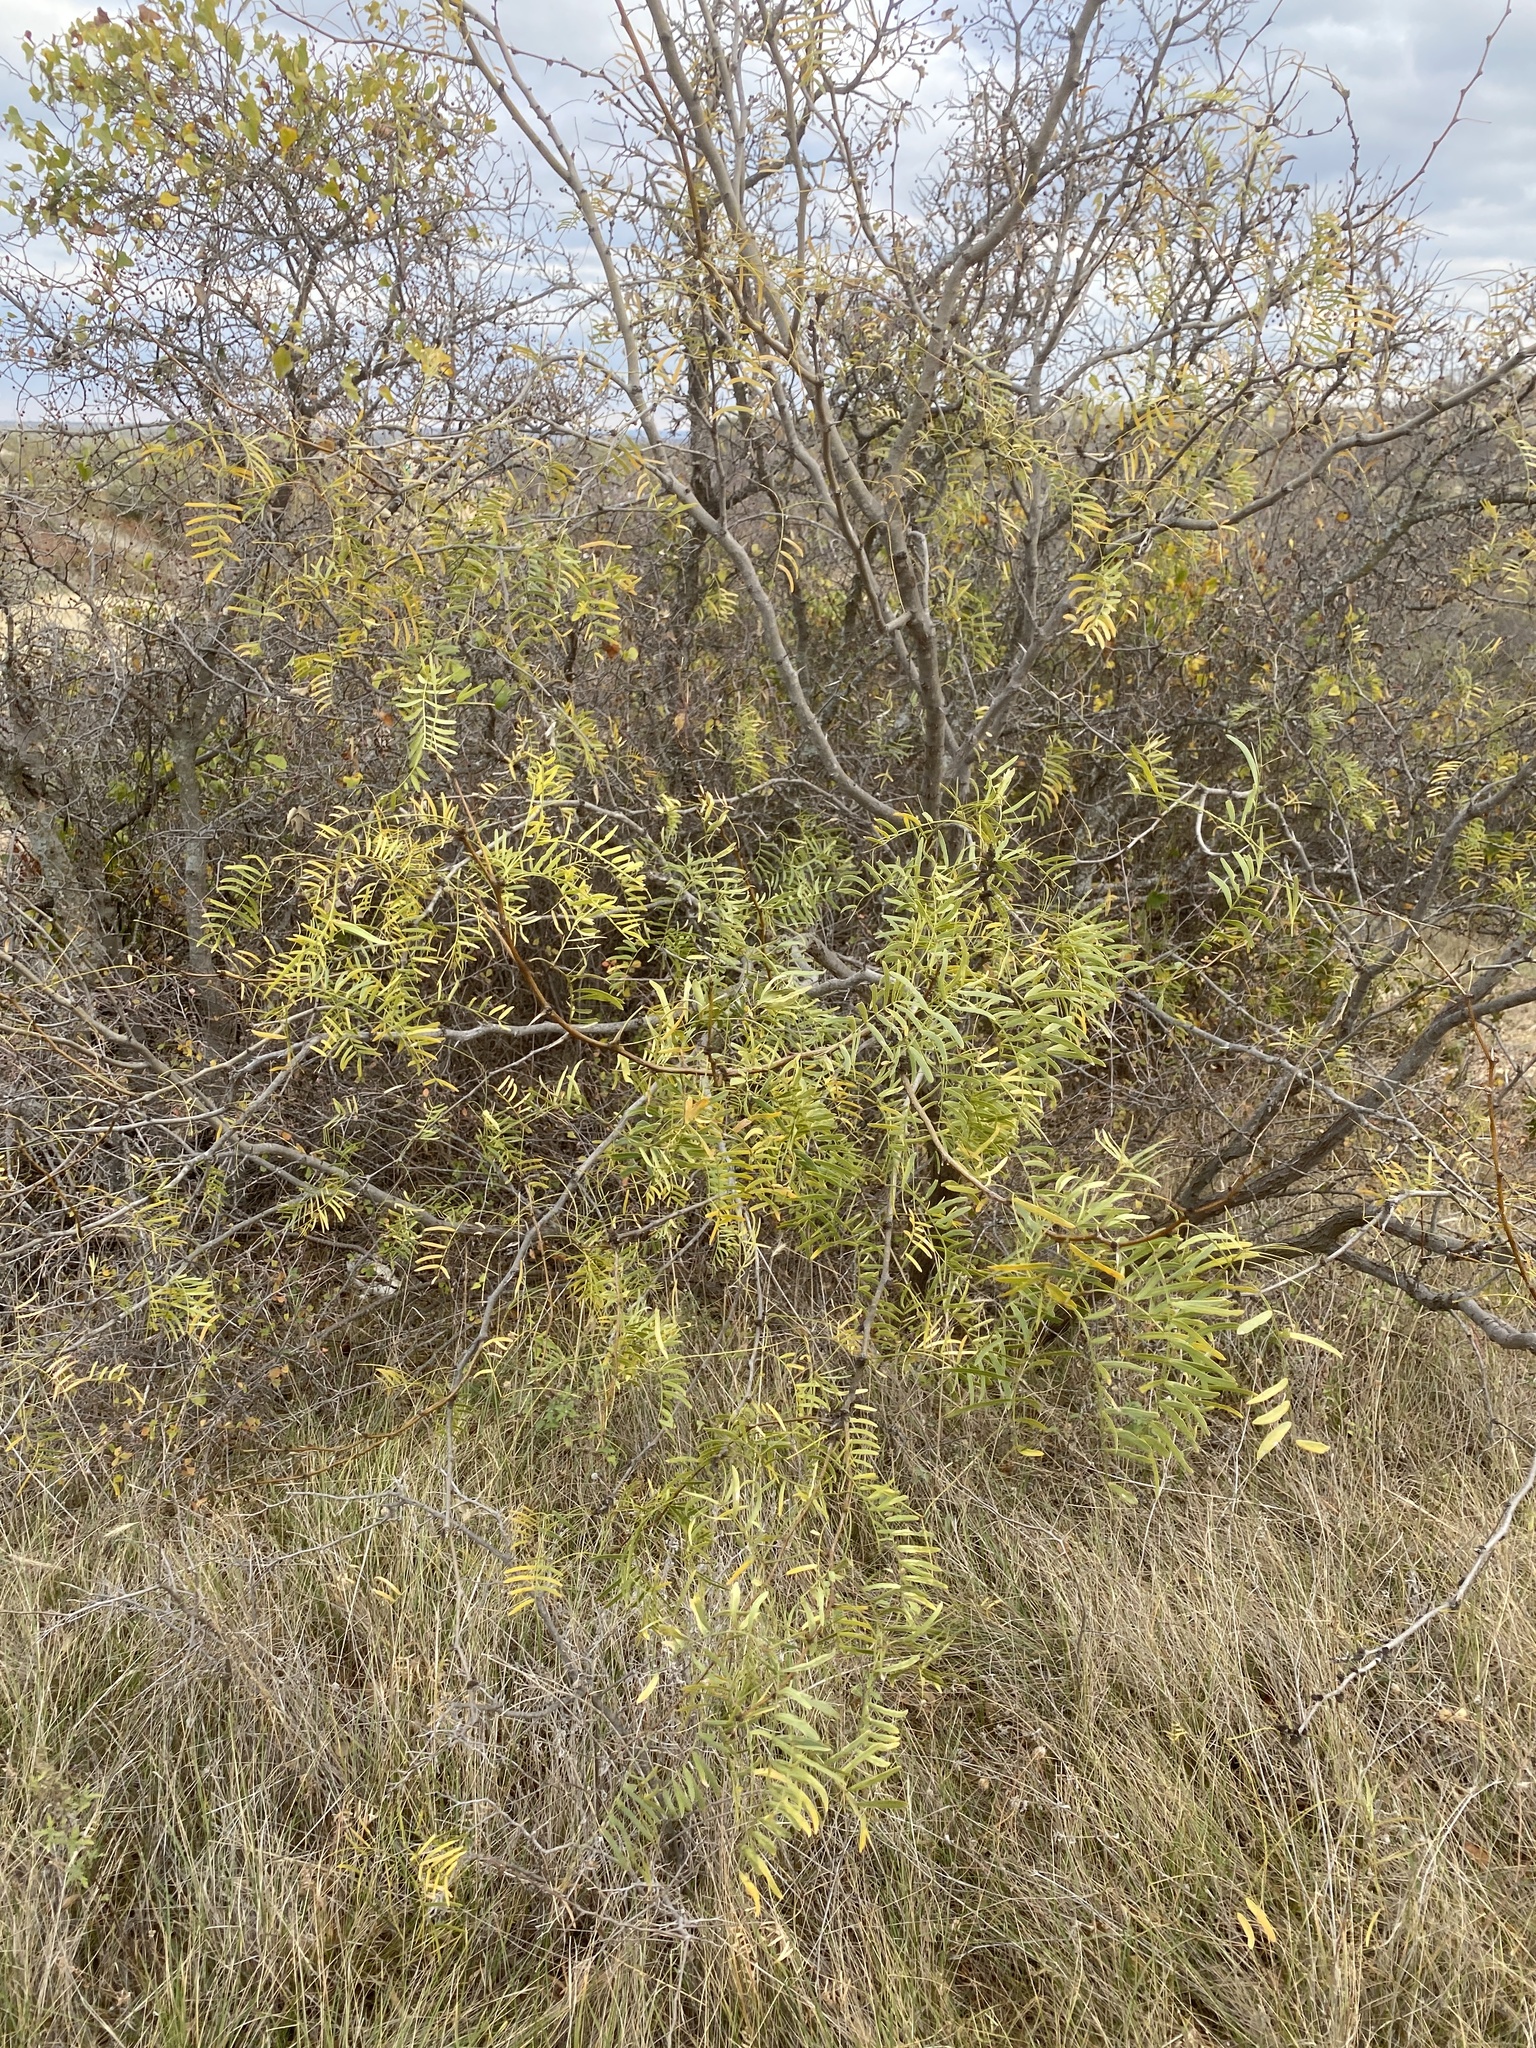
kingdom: Plantae
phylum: Tracheophyta
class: Magnoliopsida
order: Fabales
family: Fabaceae
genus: Prosopis
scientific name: Prosopis glandulosa
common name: Honey mesquite
